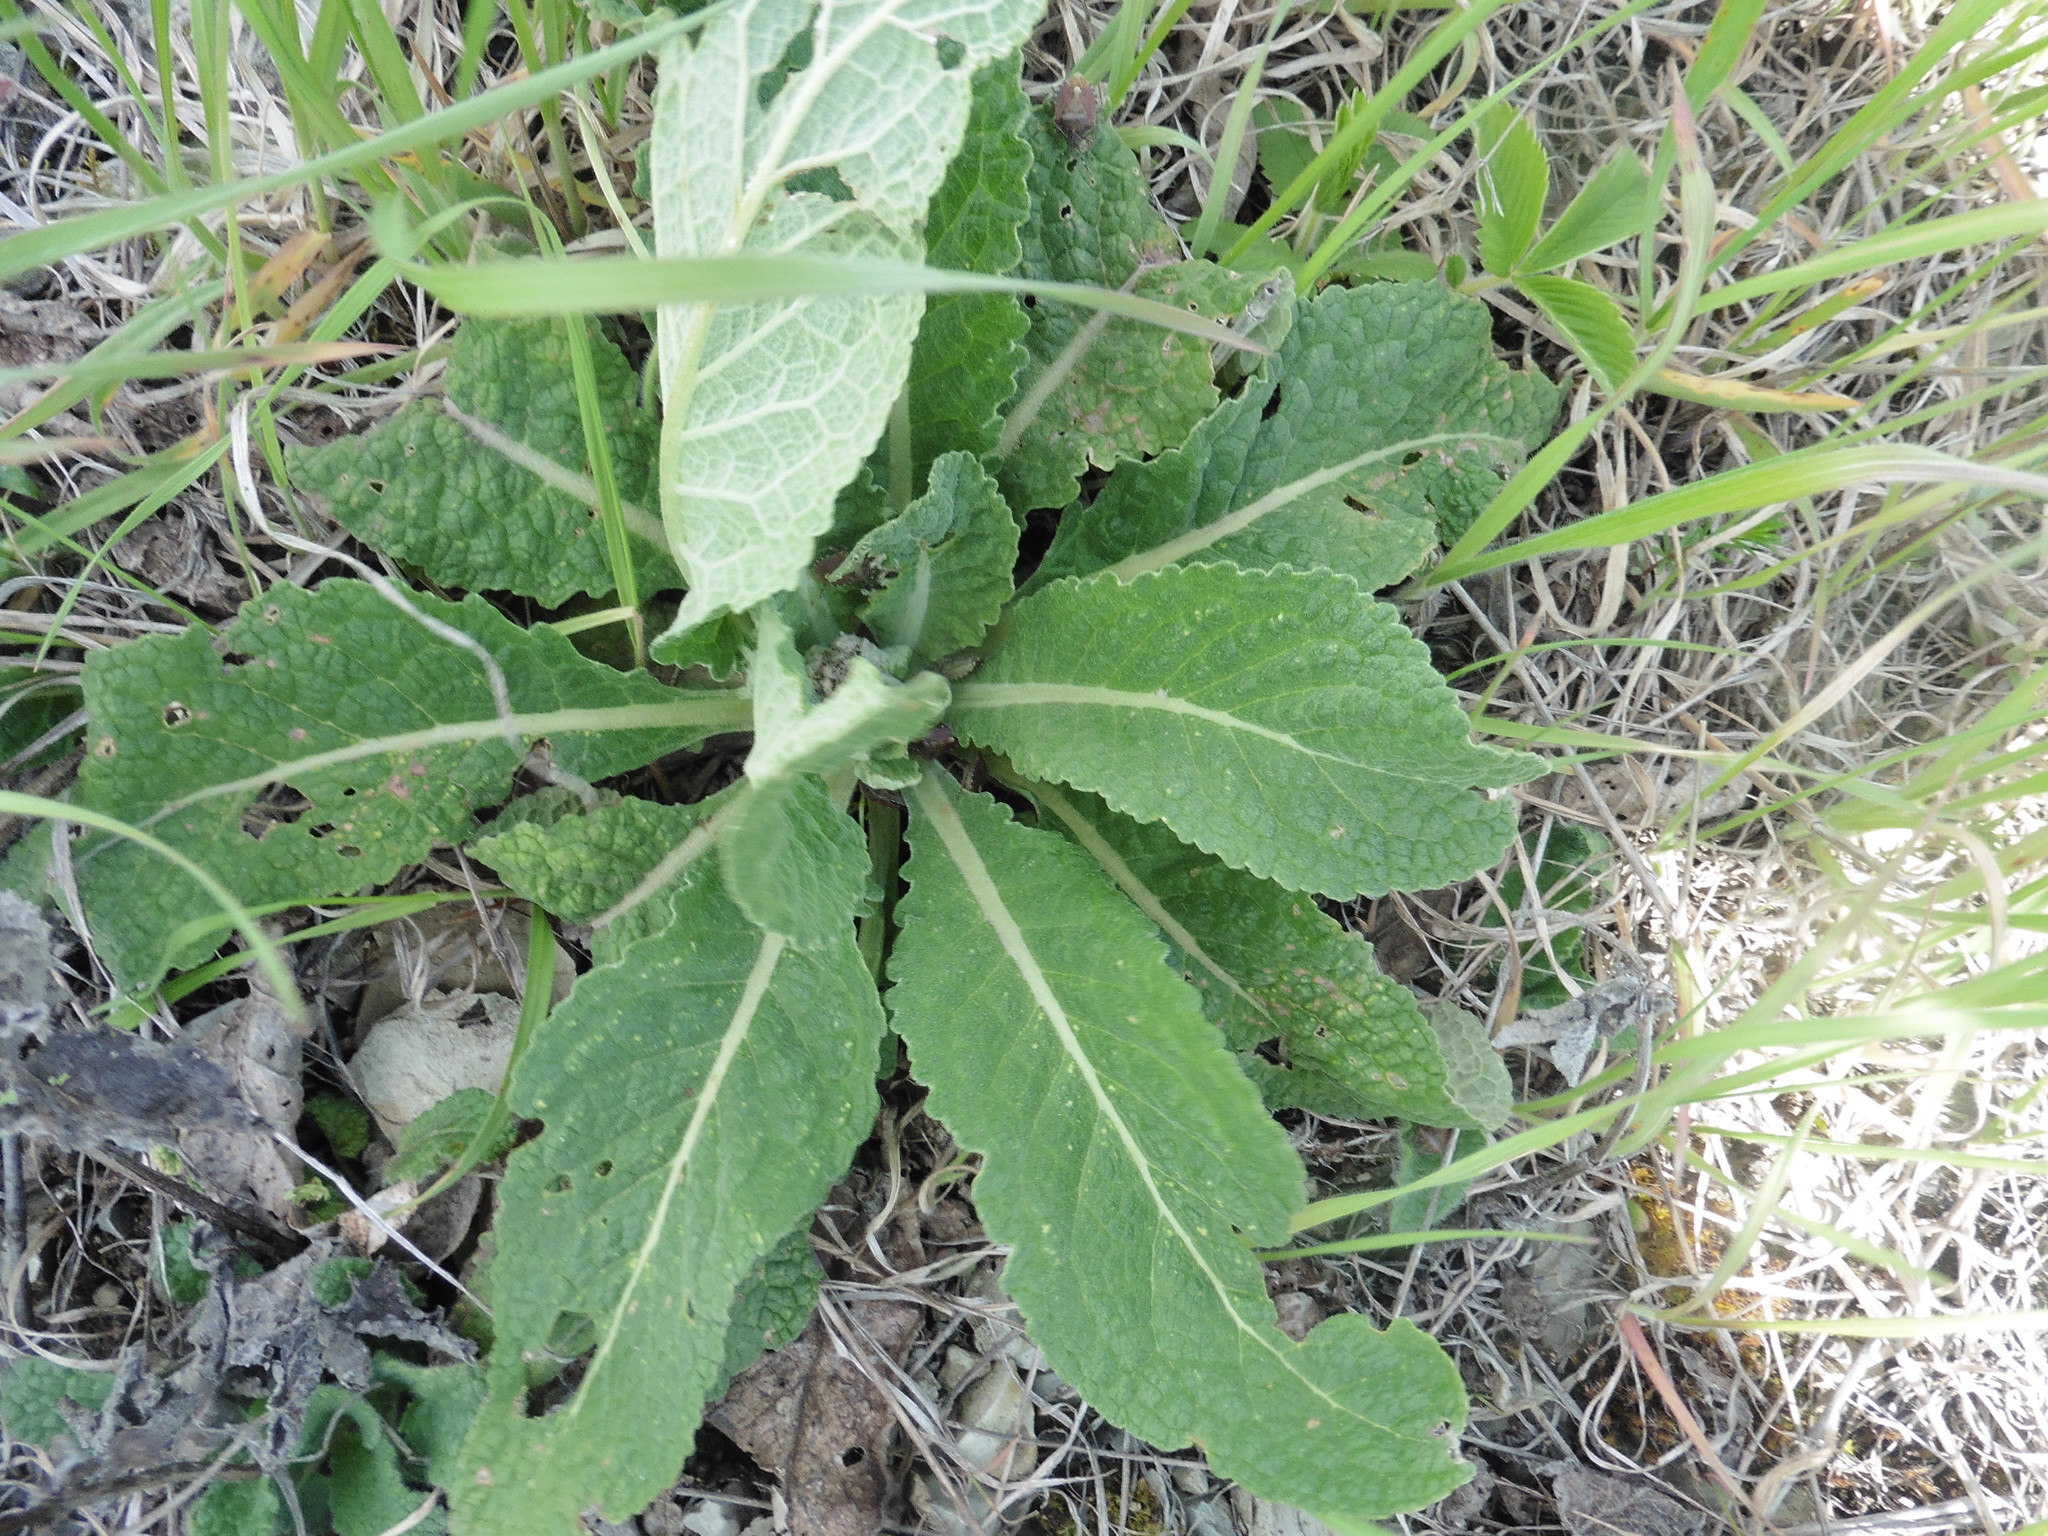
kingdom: Plantae
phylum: Tracheophyta
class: Magnoliopsida
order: Lamiales
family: Scrophulariaceae
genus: Verbascum
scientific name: Verbascum lychnitis
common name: White mullein
